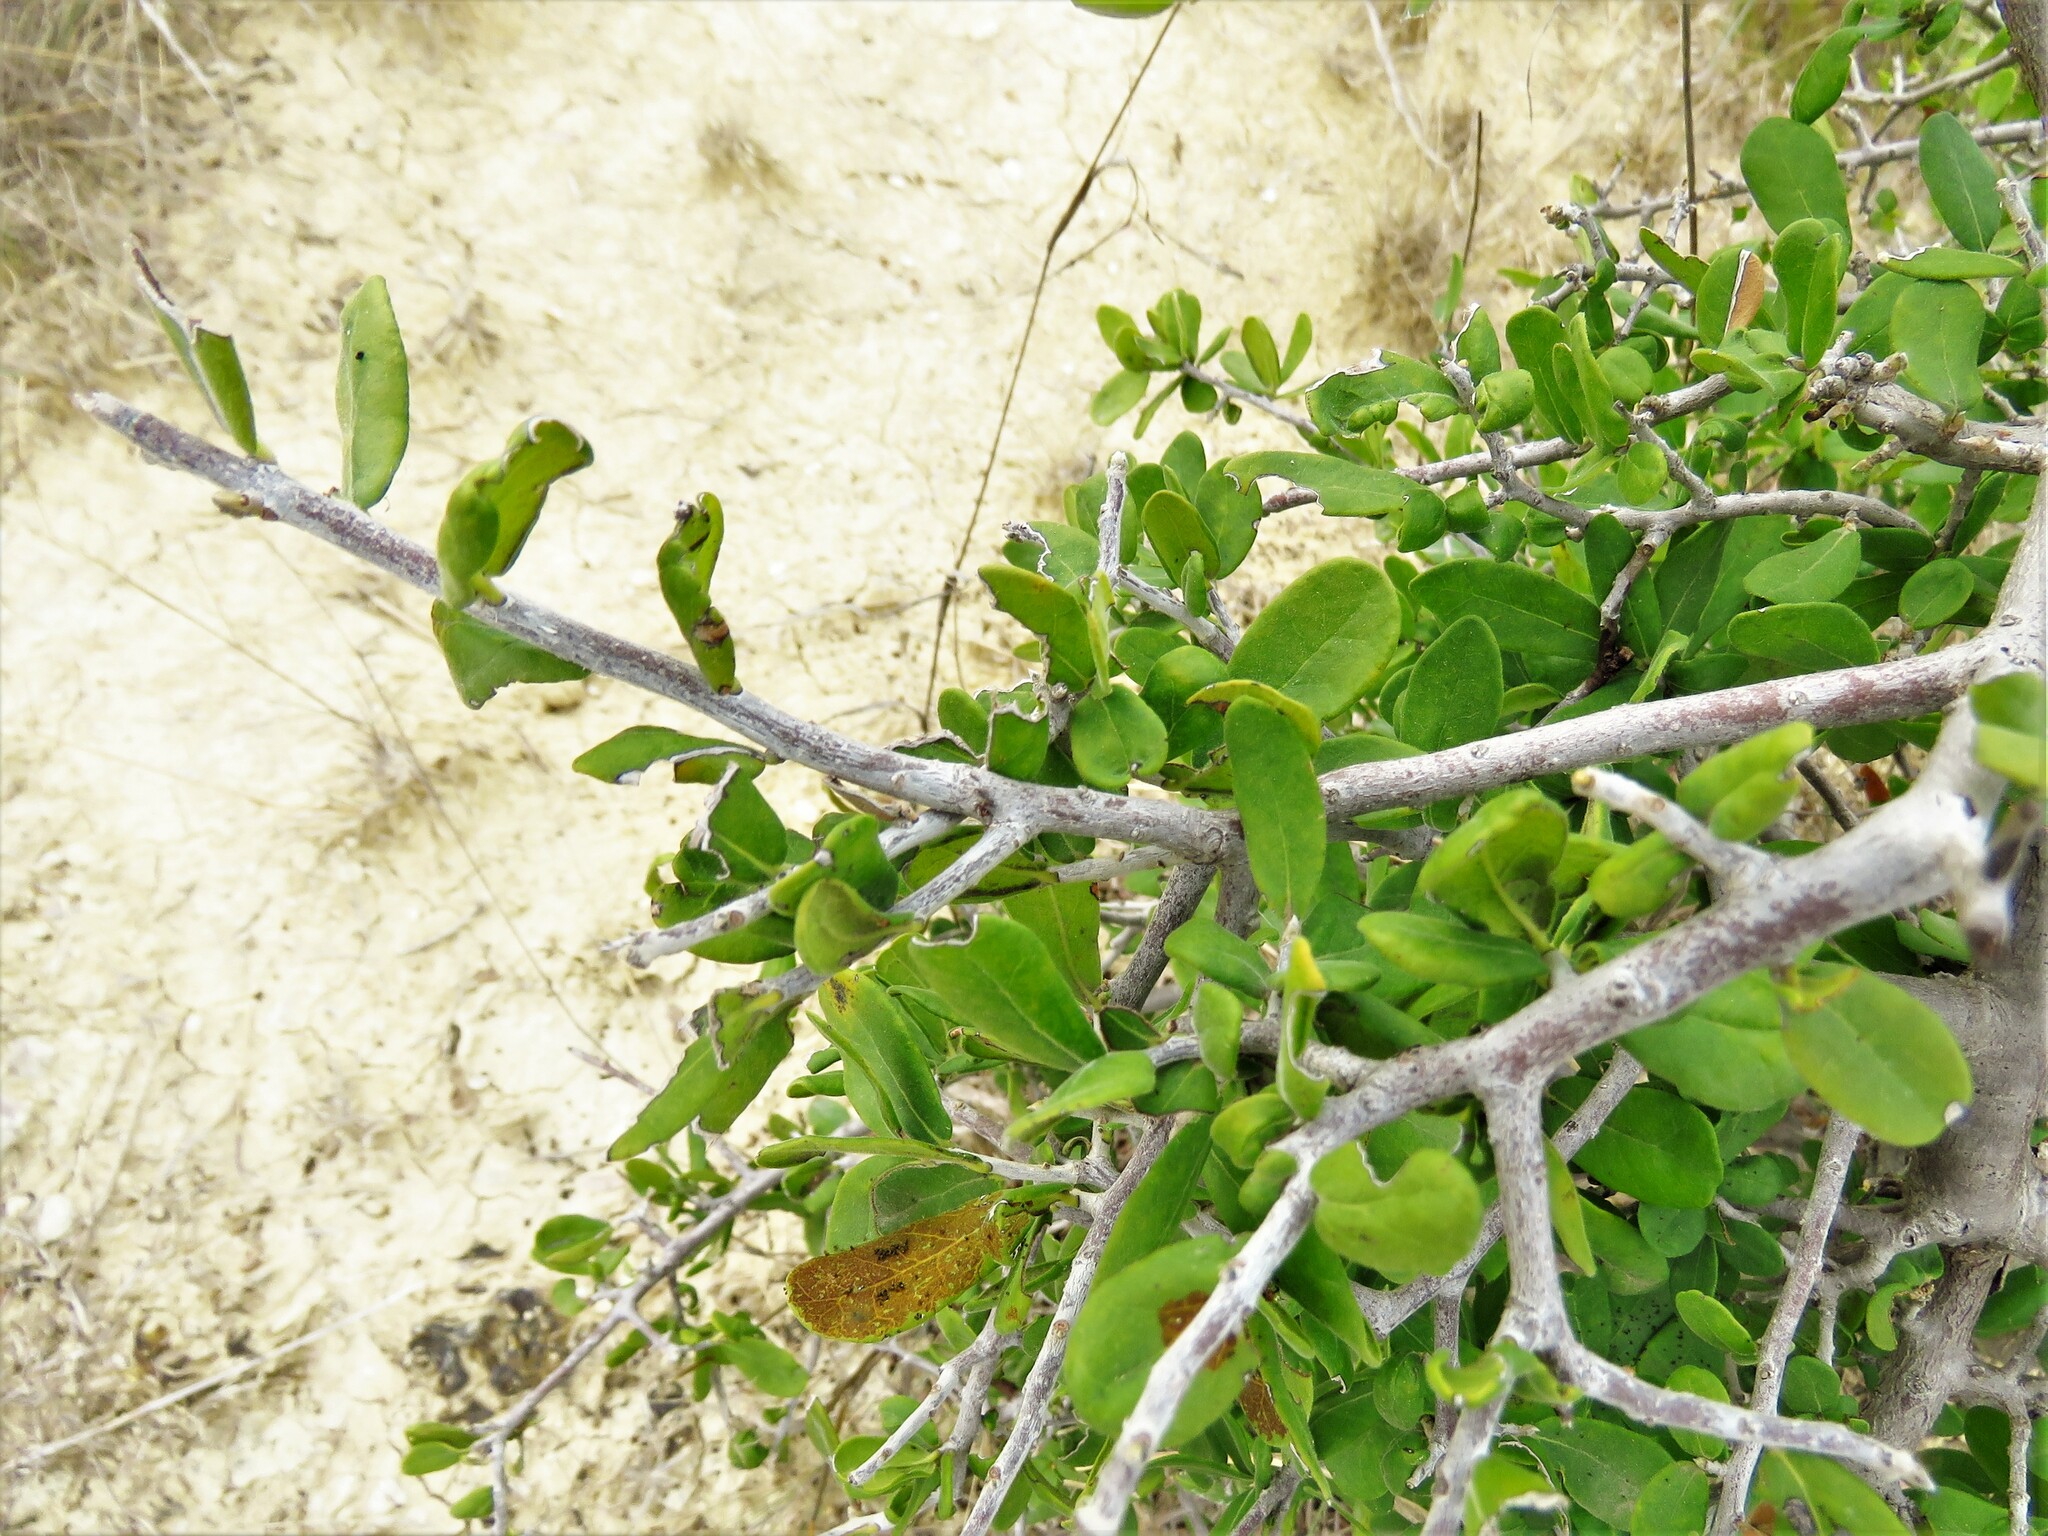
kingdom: Plantae
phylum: Tracheophyta
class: Magnoliopsida
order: Ericales
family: Ebenaceae
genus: Diospyros
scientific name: Diospyros texana
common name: Texas persimmon
